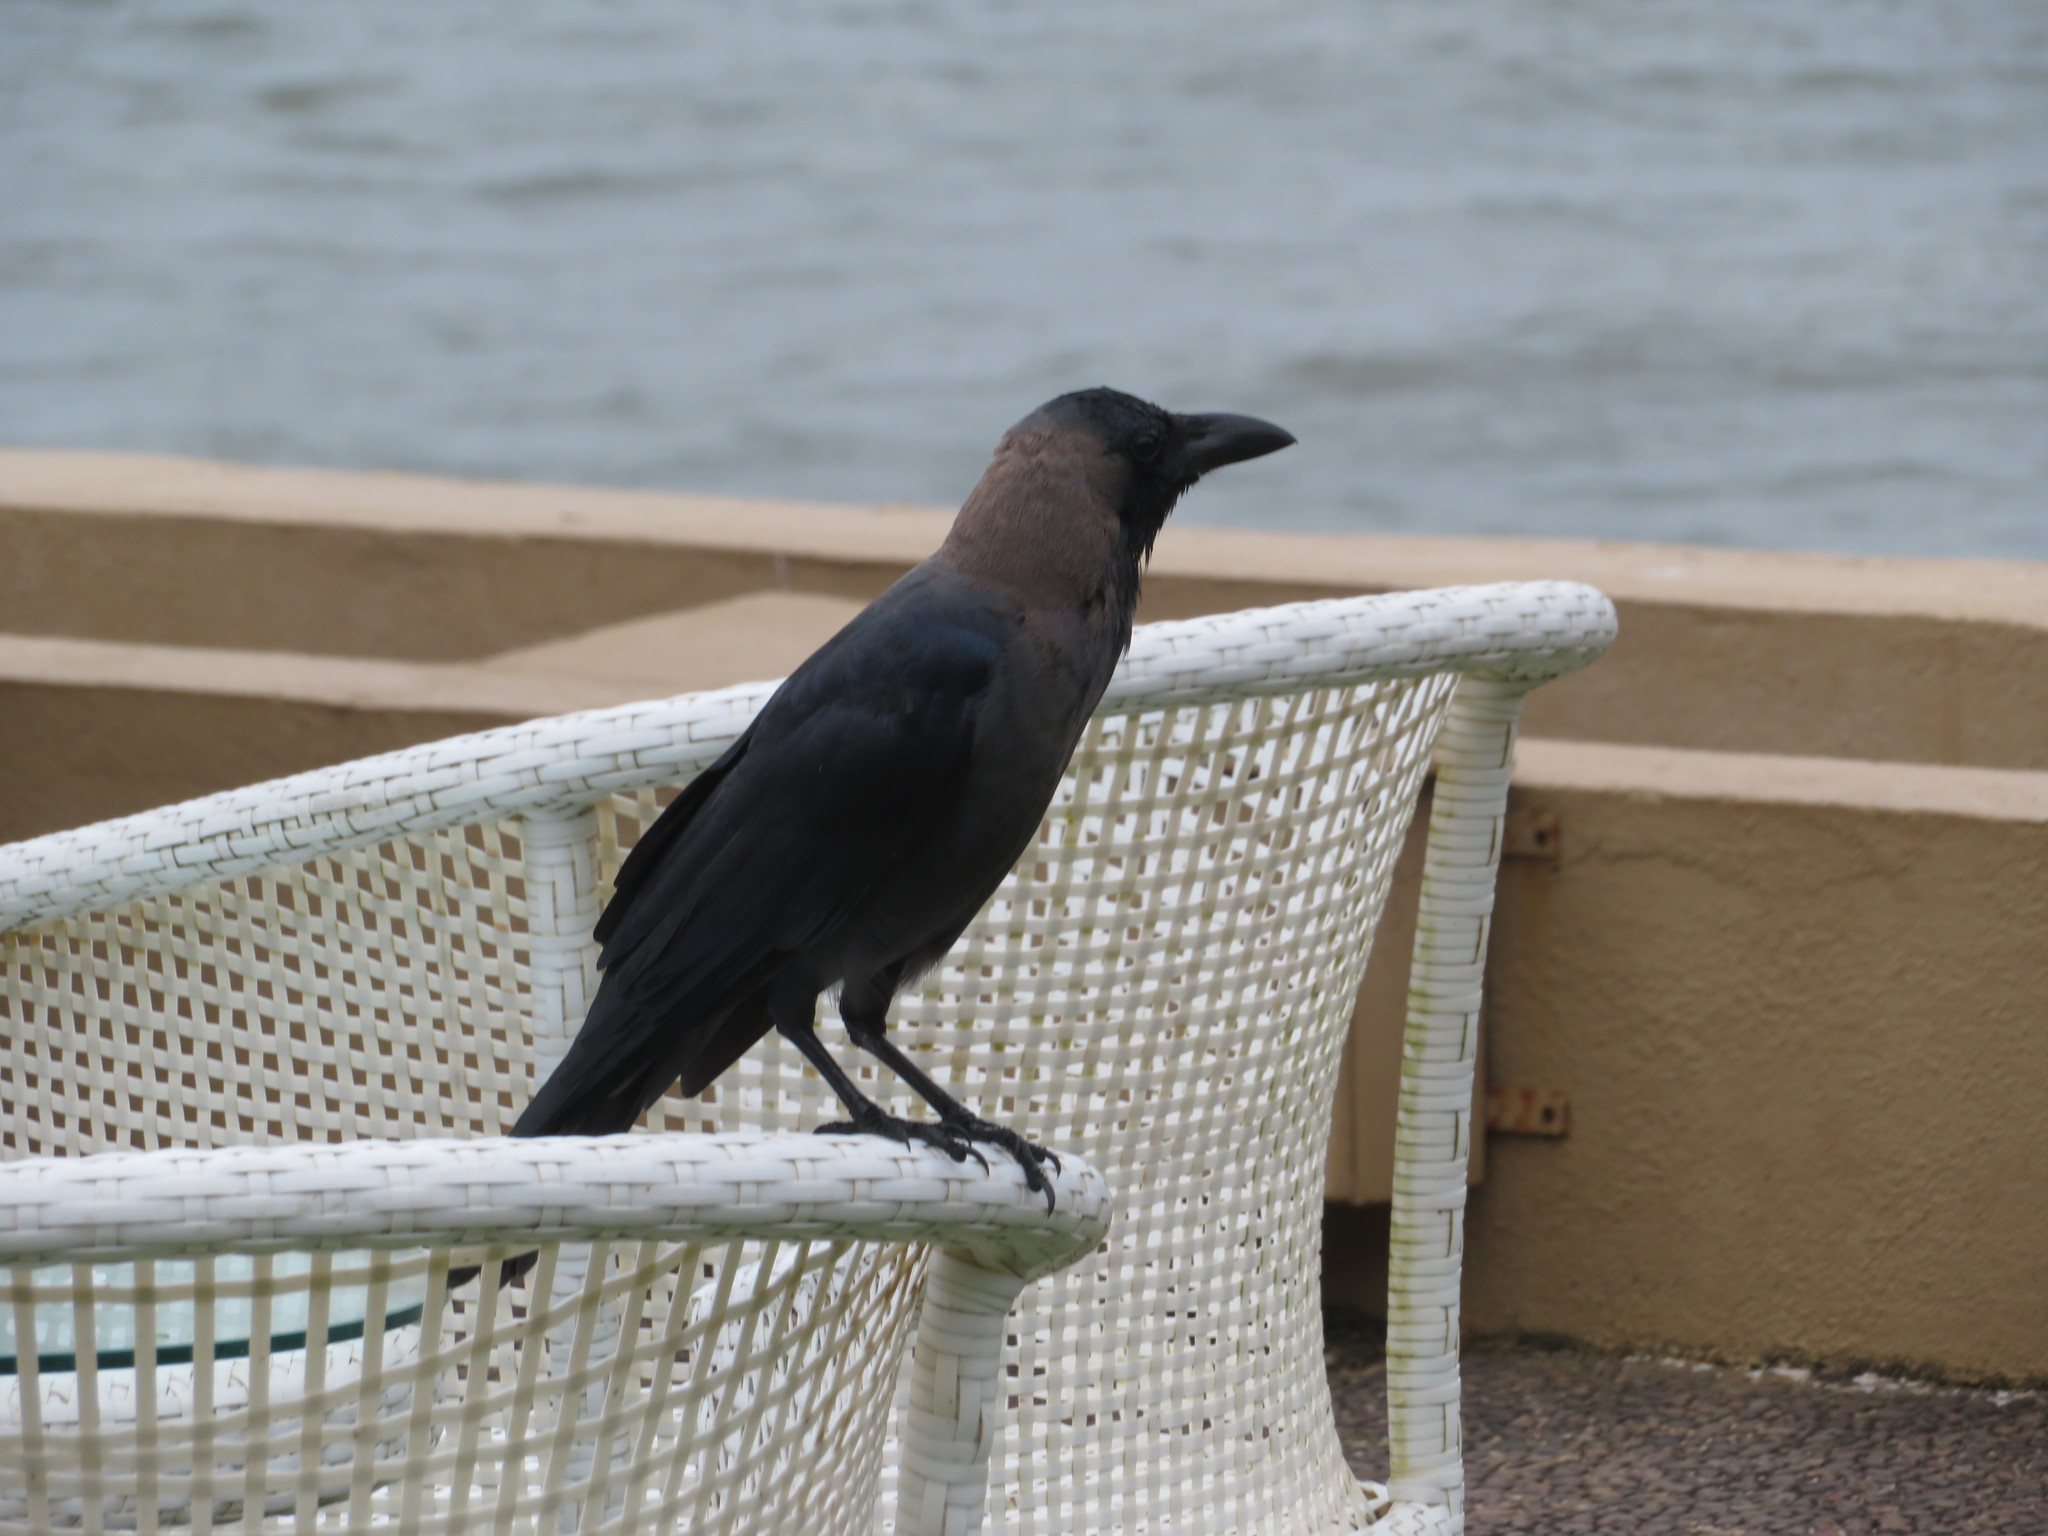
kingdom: Animalia
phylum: Chordata
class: Aves
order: Passeriformes
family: Corvidae
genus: Corvus
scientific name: Corvus splendens
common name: House crow
